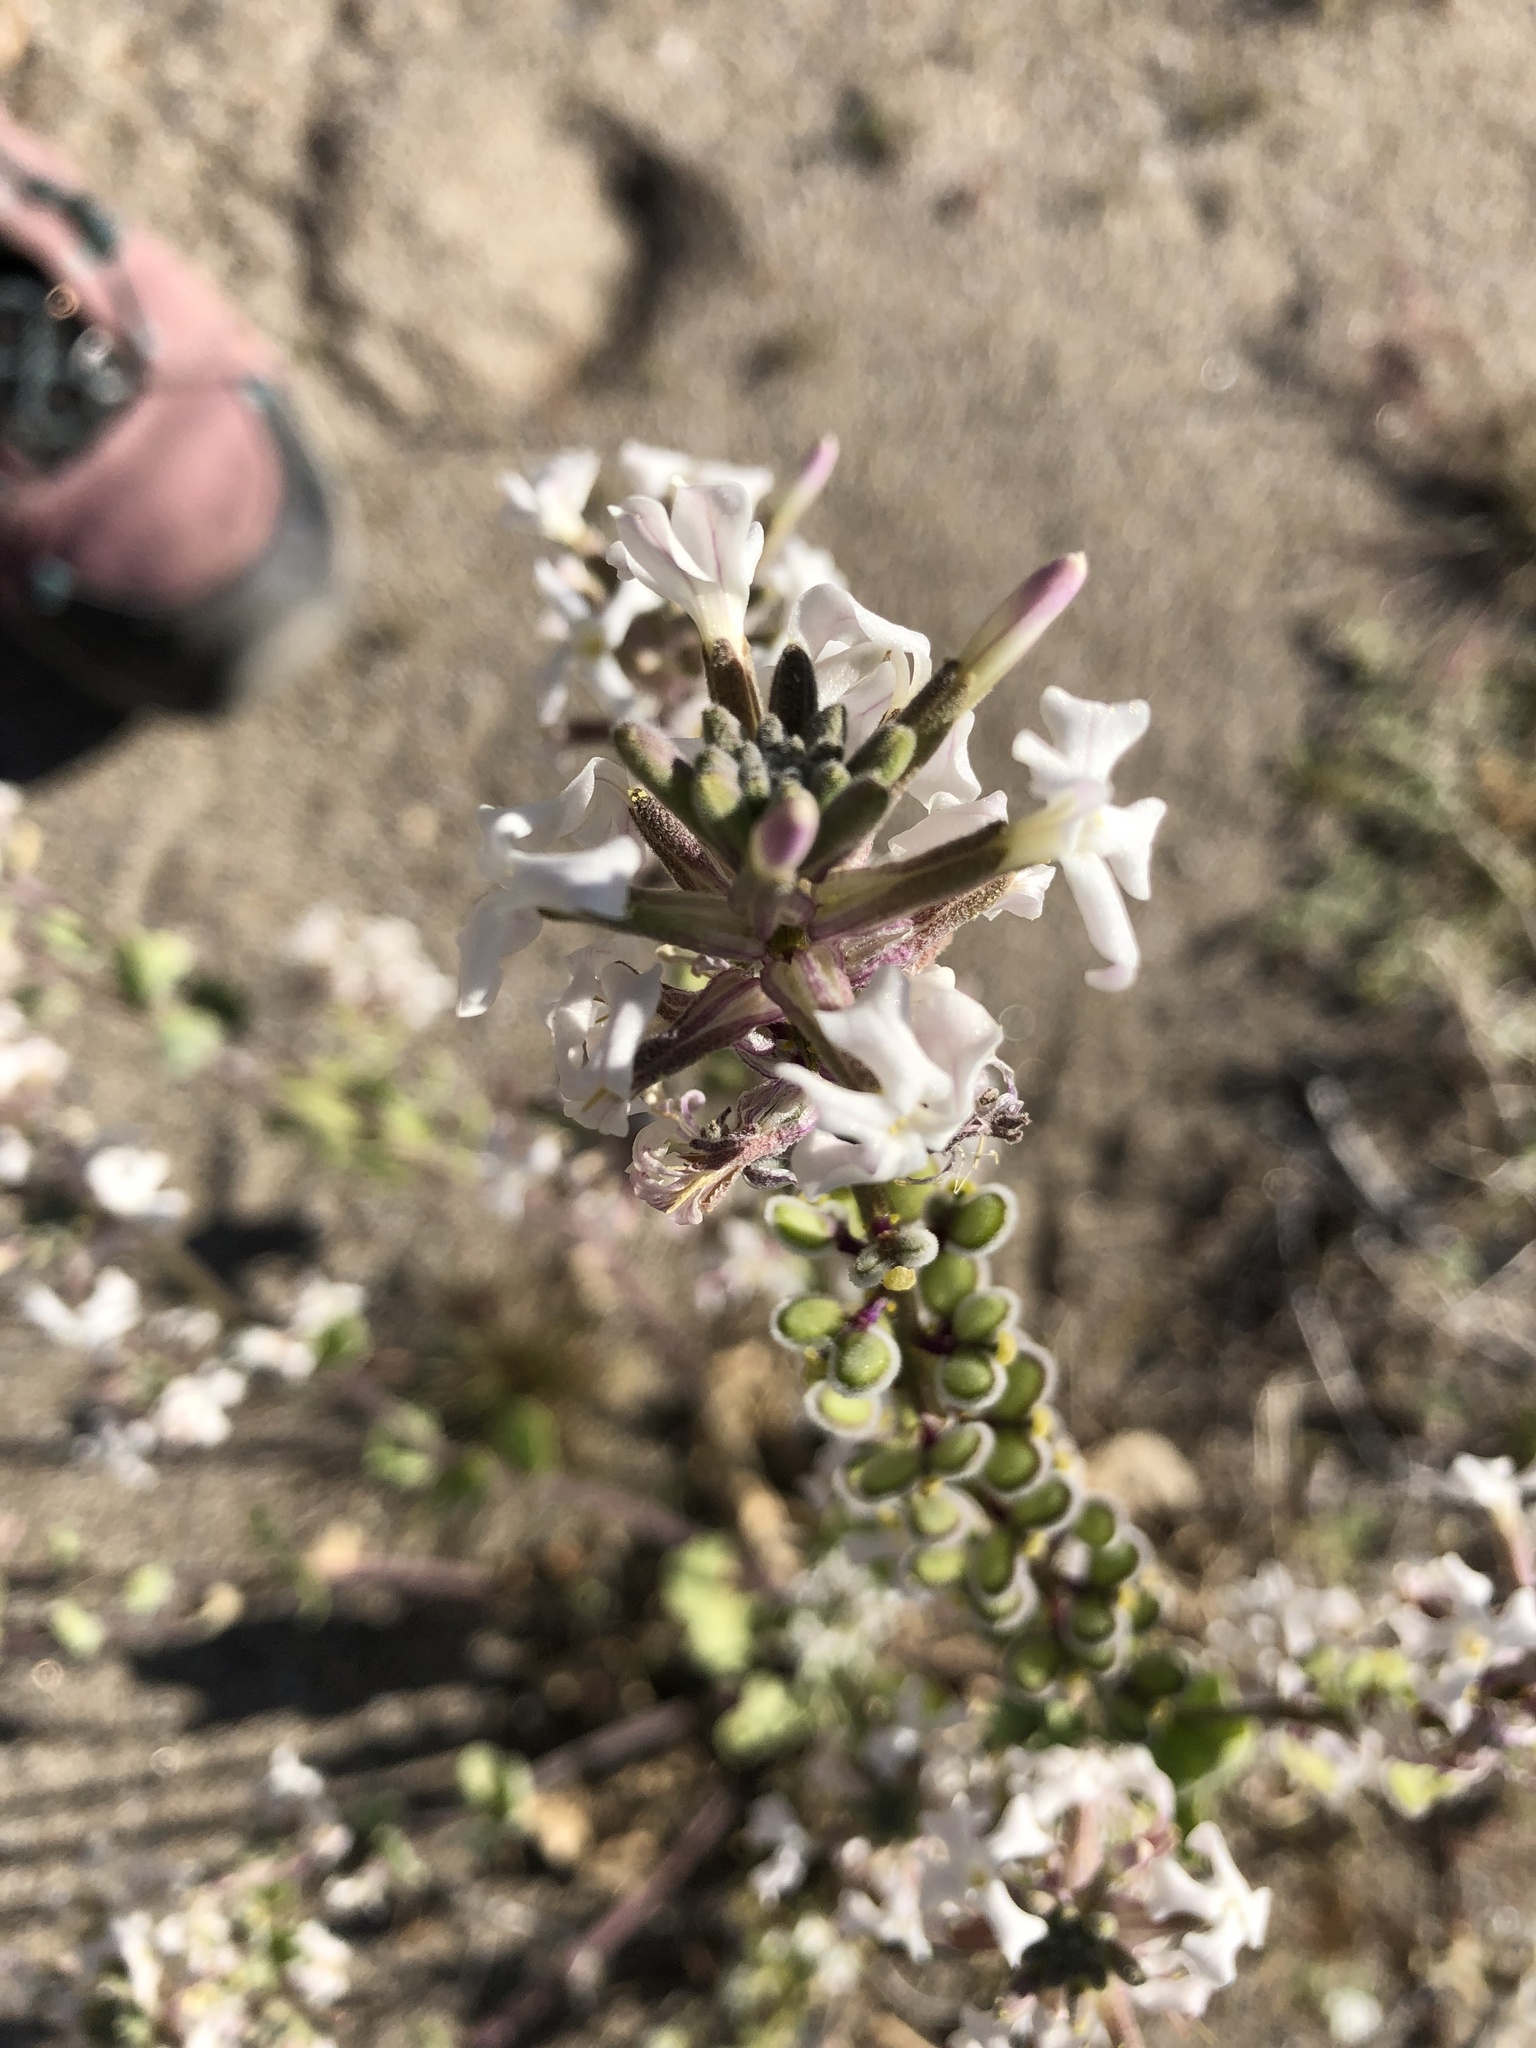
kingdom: Plantae
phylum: Tracheophyta
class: Magnoliopsida
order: Brassicales
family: Brassicaceae
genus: Dithyrea
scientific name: Dithyrea californica
